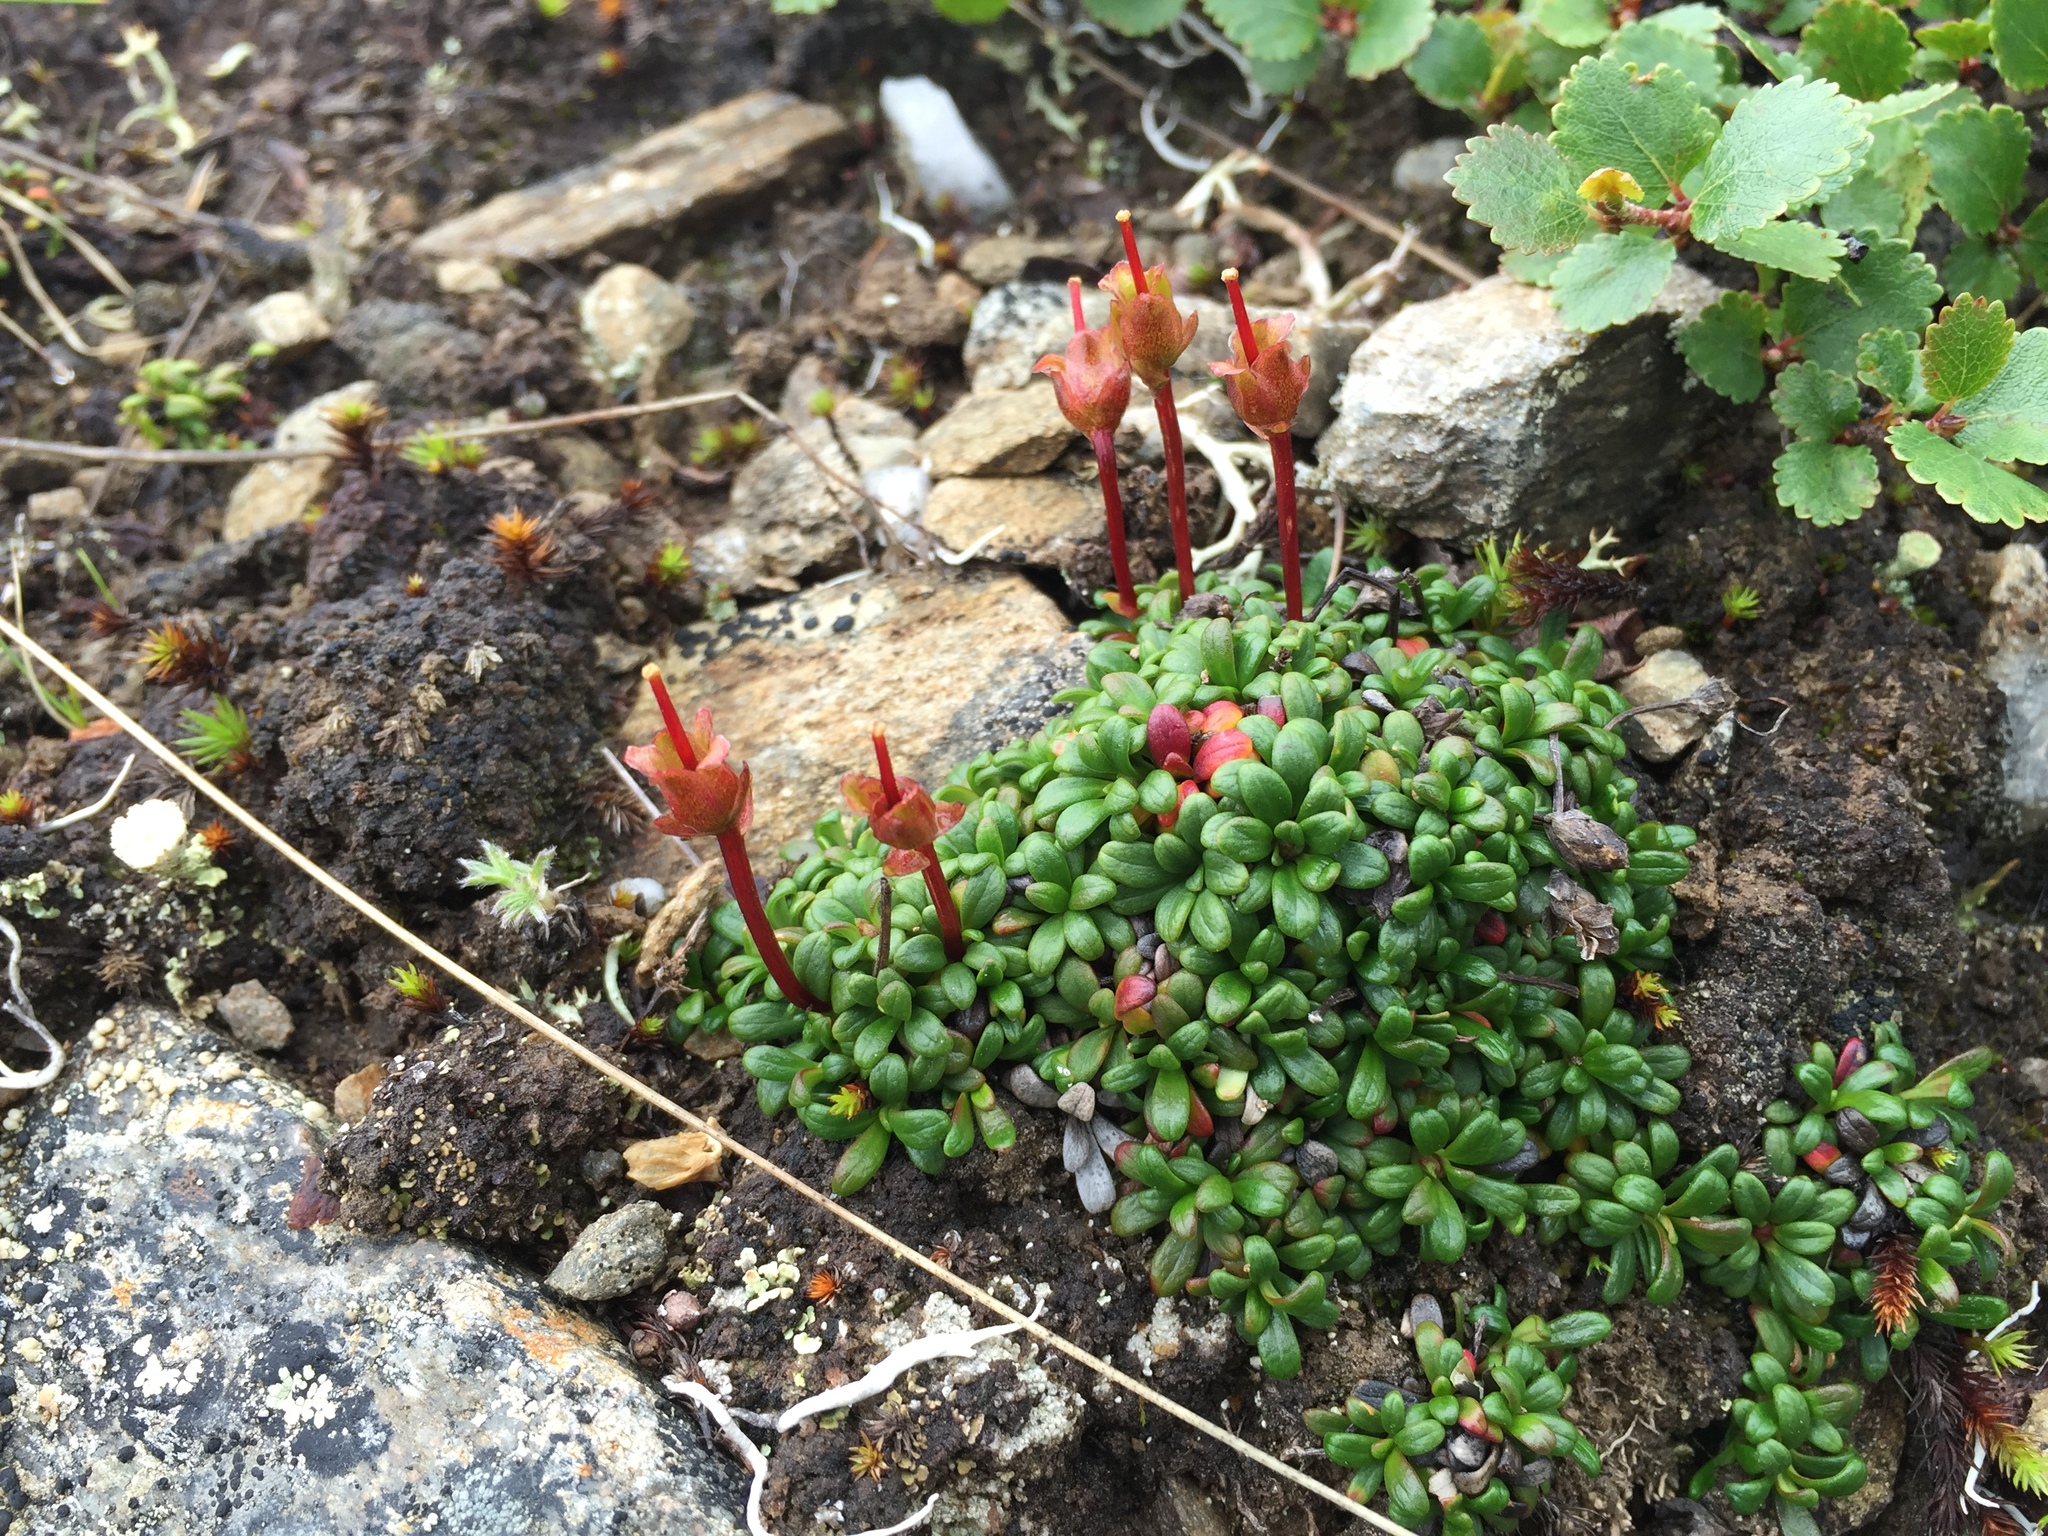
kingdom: Plantae
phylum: Tracheophyta
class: Magnoliopsida
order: Ericales
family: Diapensiaceae
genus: Diapensia
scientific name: Diapensia obovata
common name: Alaska diapensia
